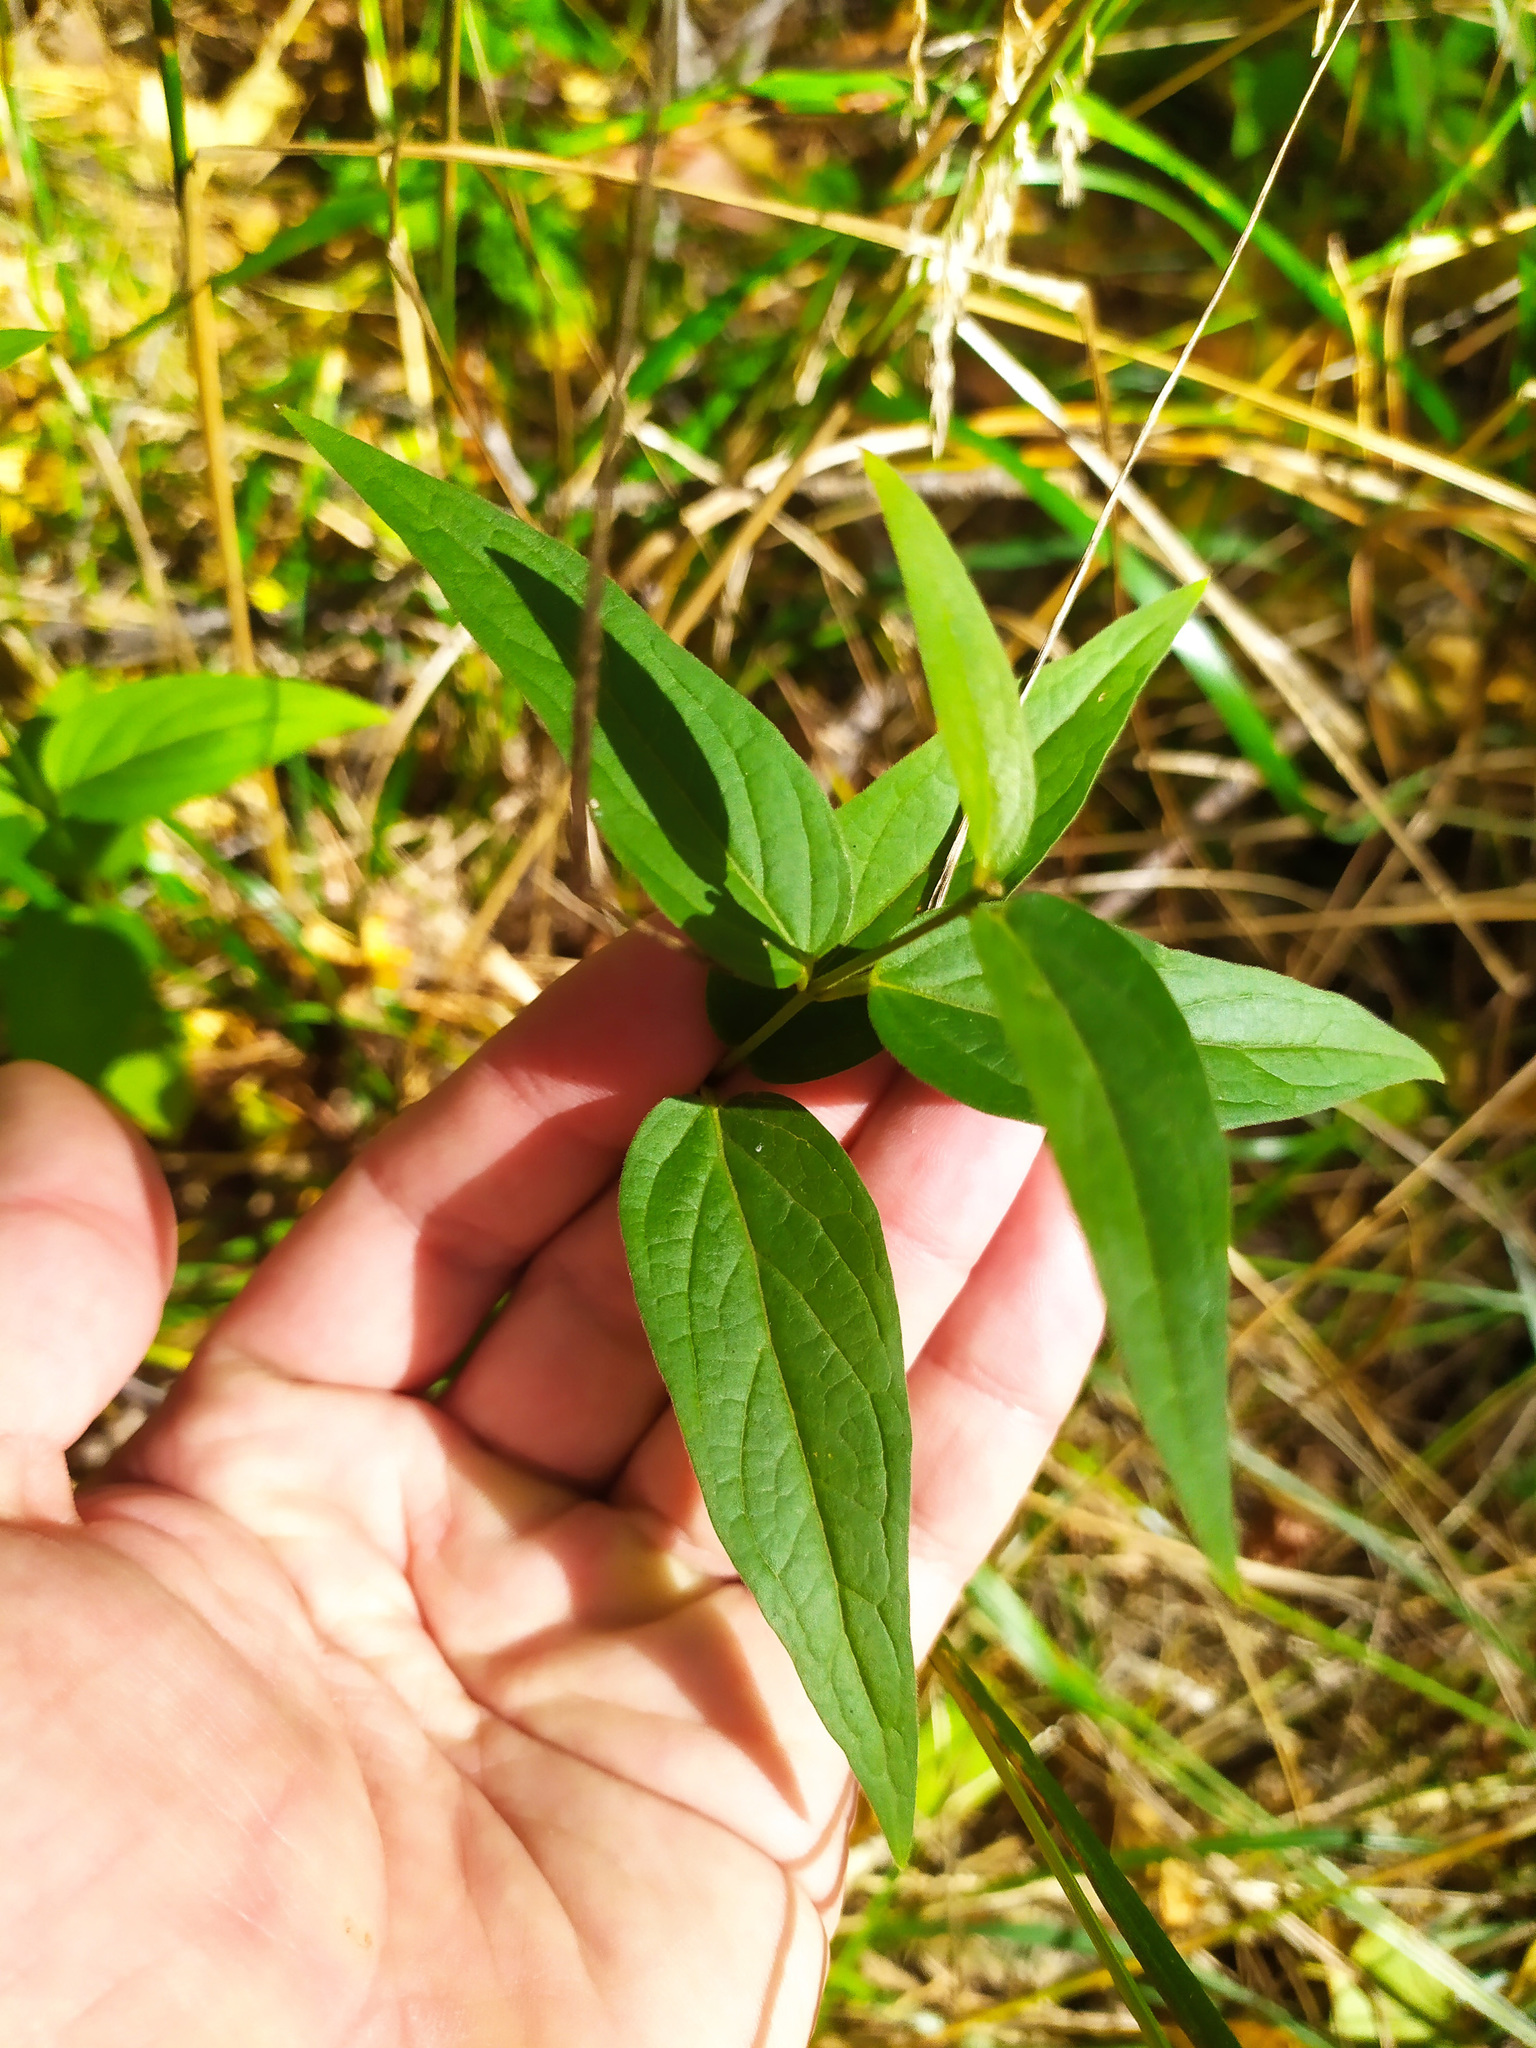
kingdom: Plantae
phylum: Tracheophyta
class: Magnoliopsida
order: Gentianales
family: Apocynaceae
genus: Vincetoxicum
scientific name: Vincetoxicum hirundinaria
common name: White swallowwort
